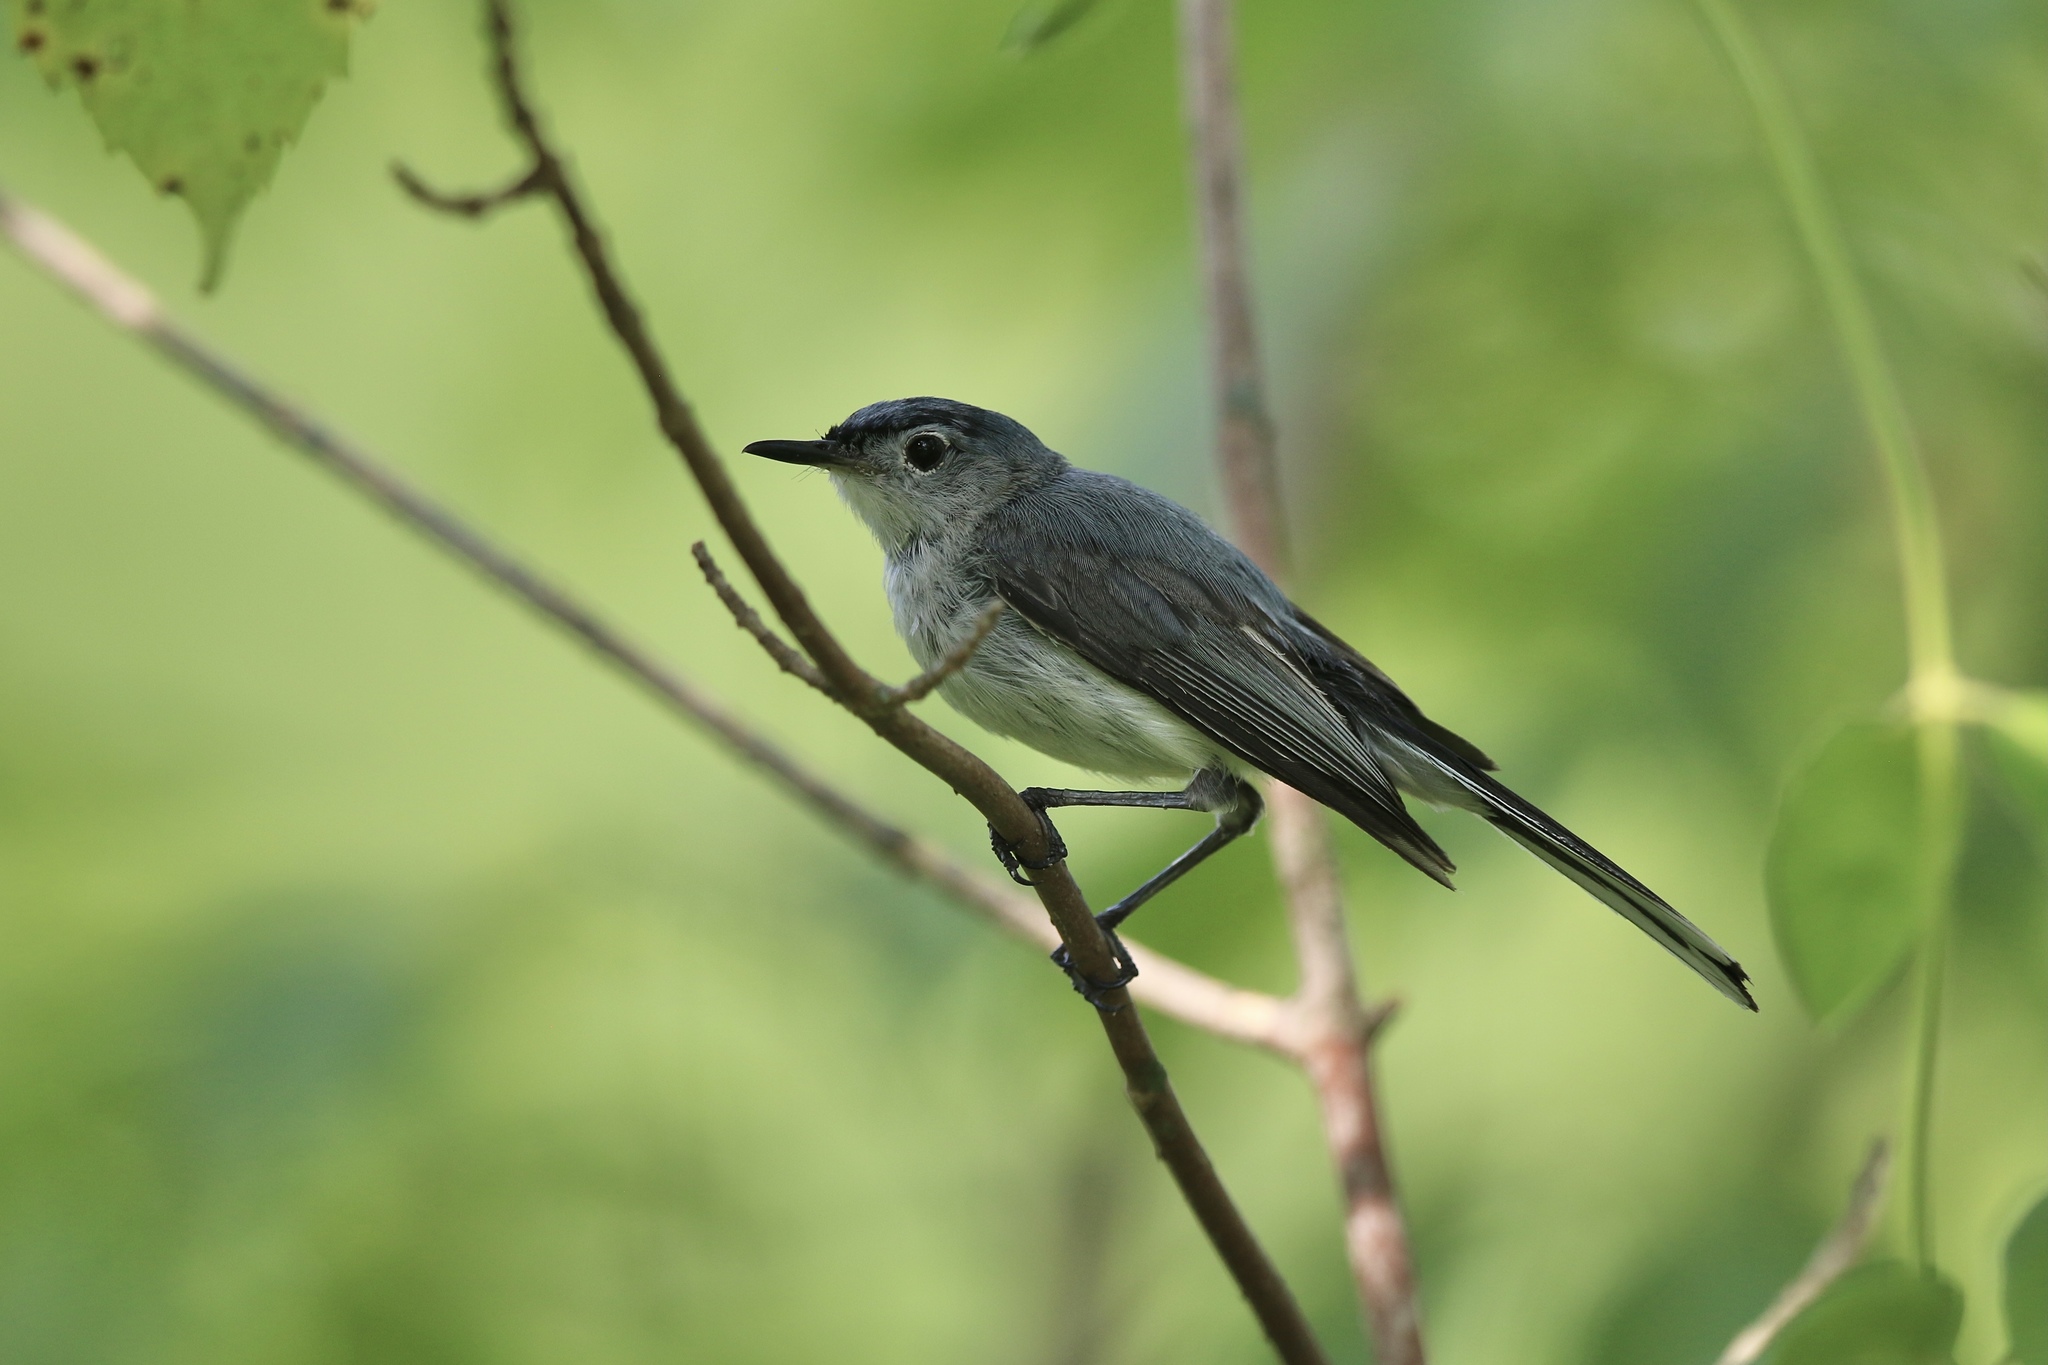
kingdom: Animalia
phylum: Chordata
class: Aves
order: Passeriformes
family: Polioptilidae
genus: Polioptila
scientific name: Polioptila caerulea
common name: Blue-gray gnatcatcher
